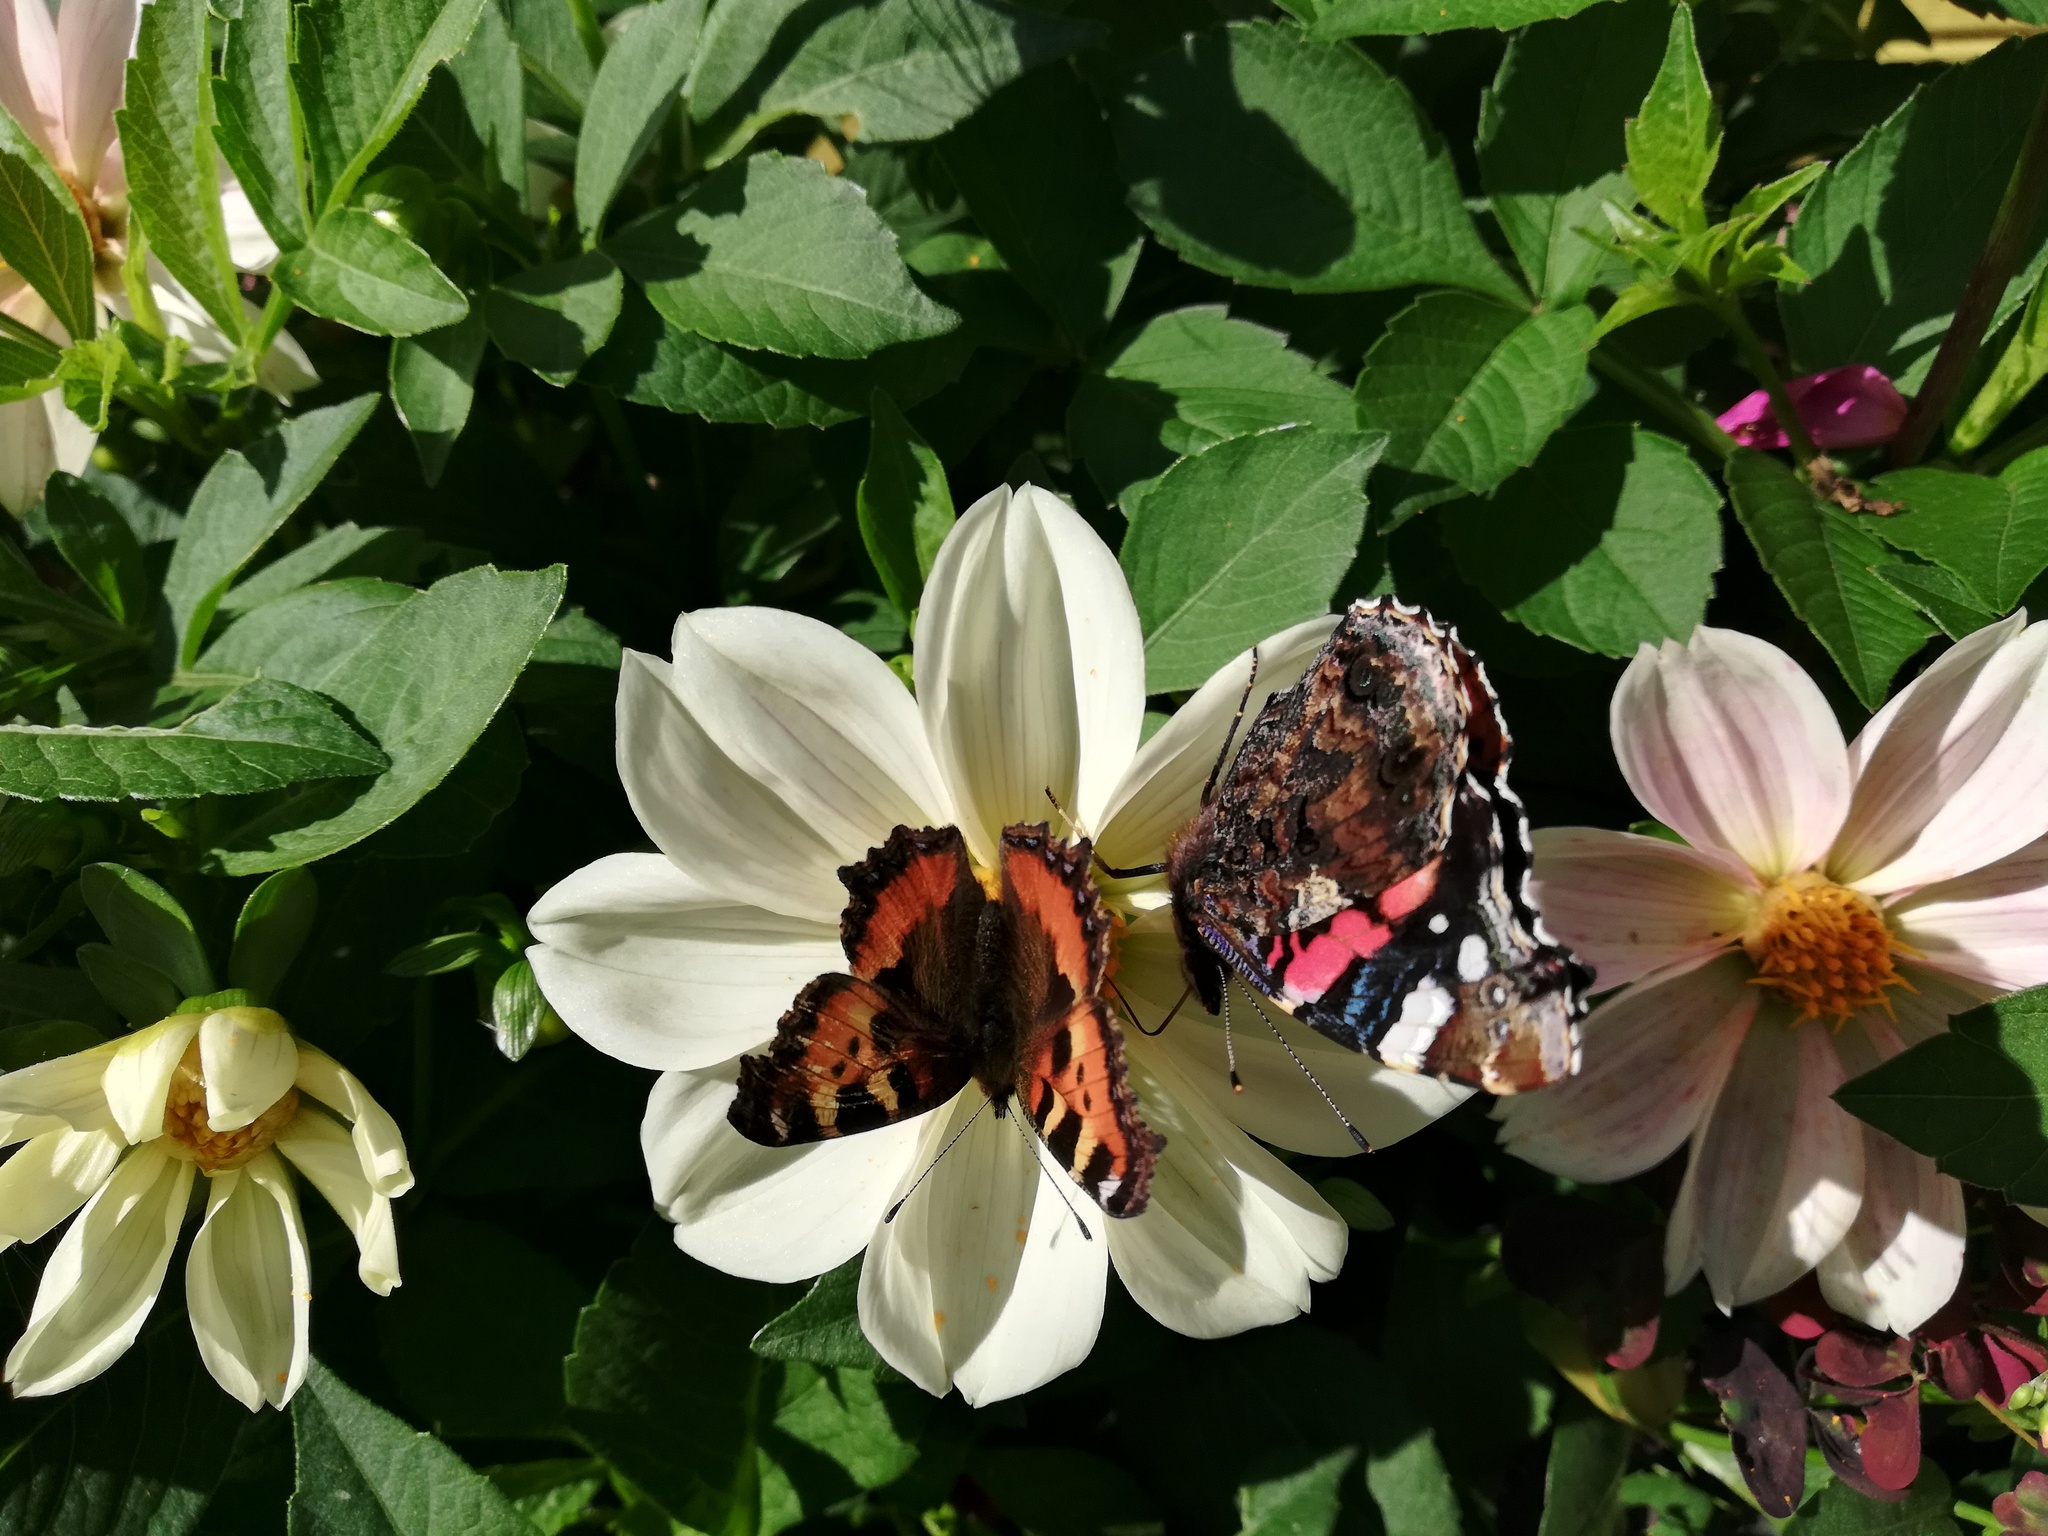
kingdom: Animalia
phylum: Arthropoda
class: Insecta
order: Lepidoptera
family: Nymphalidae
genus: Aglais
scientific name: Aglais urticae
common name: Small tortoiseshell
